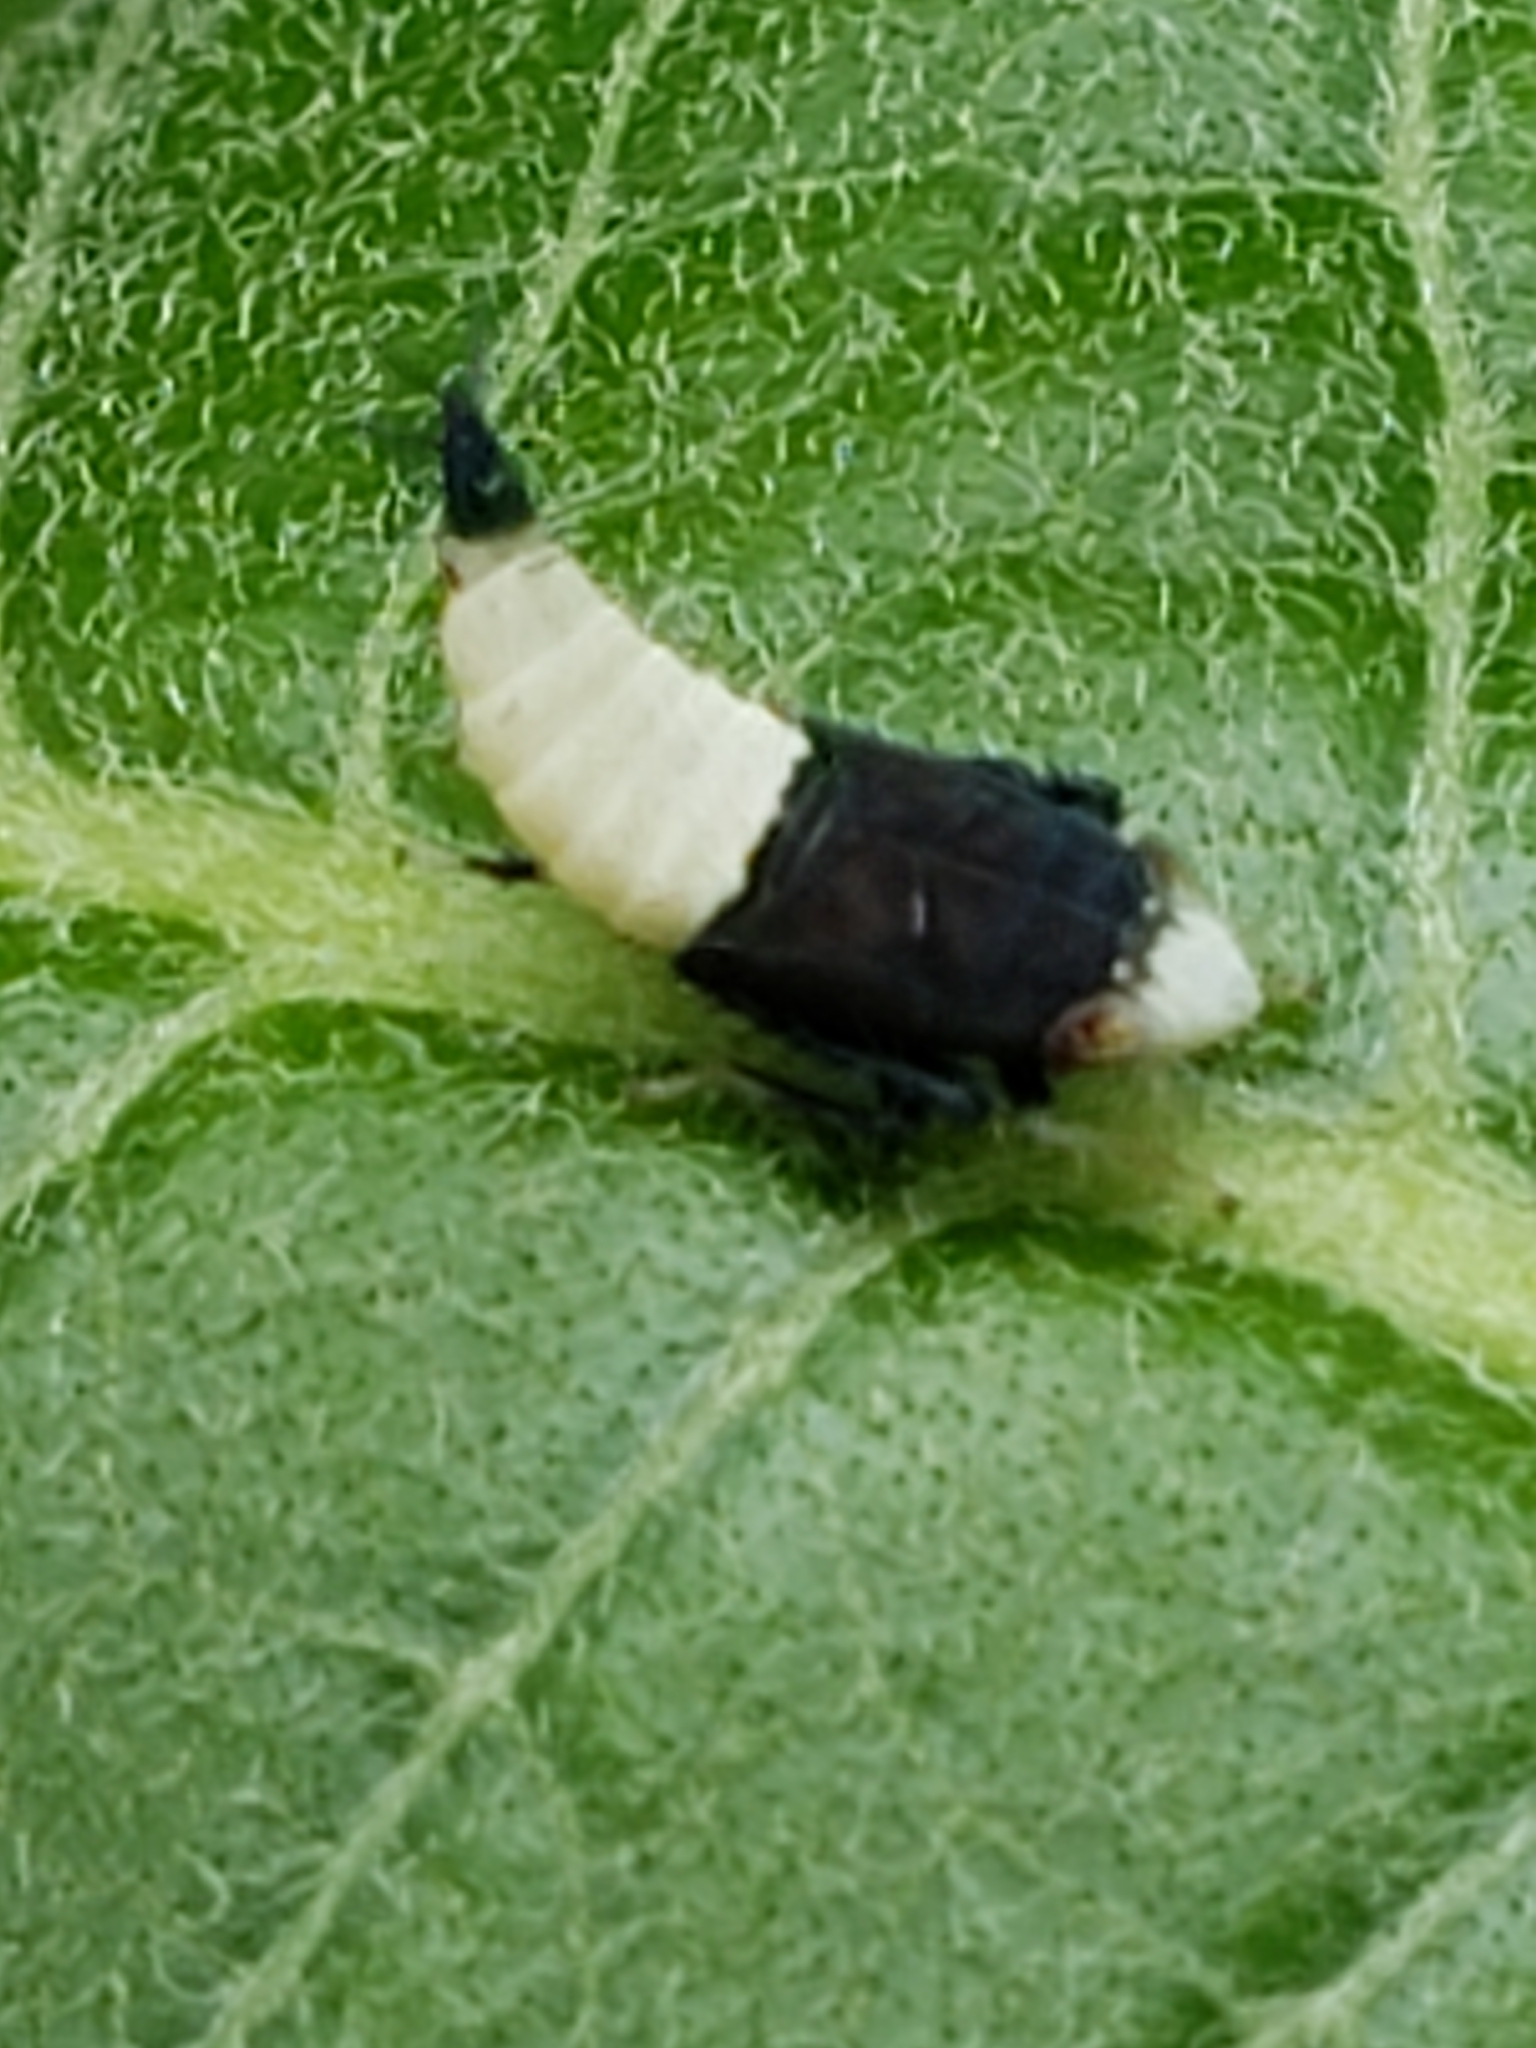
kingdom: Animalia
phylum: Arthropoda
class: Insecta
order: Hemiptera
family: Cicadellidae
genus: Scaphoideus
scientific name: Scaphoideus incisus
